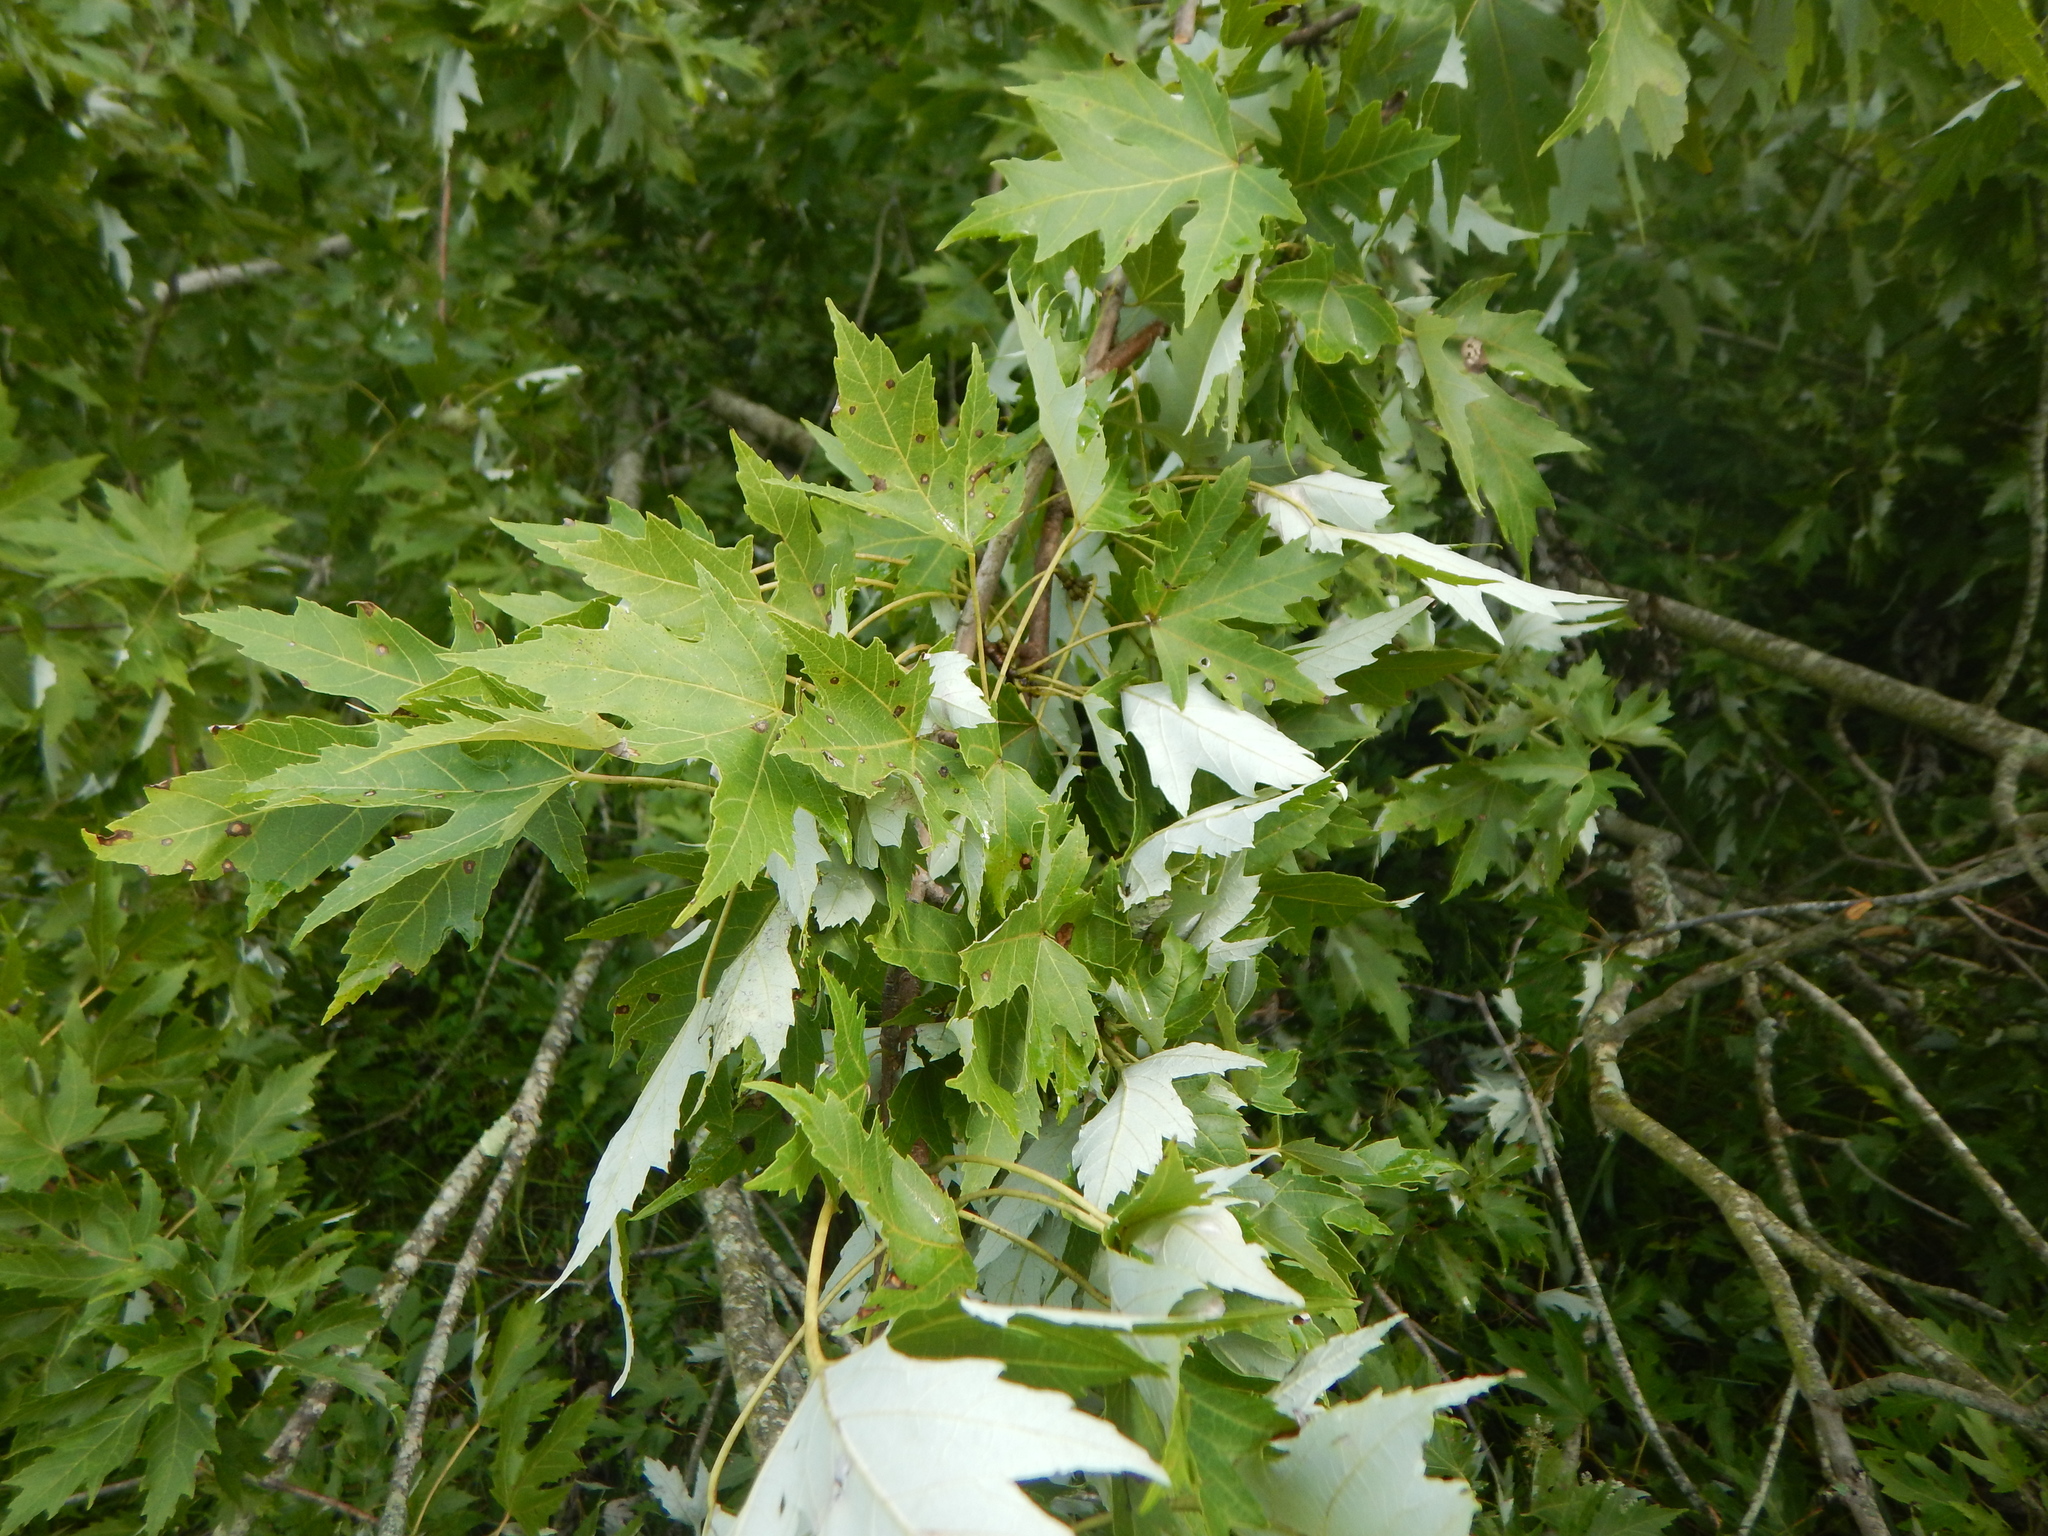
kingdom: Plantae
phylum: Tracheophyta
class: Magnoliopsida
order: Sapindales
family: Sapindaceae
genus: Acer
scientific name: Acer saccharinum
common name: Silver maple
